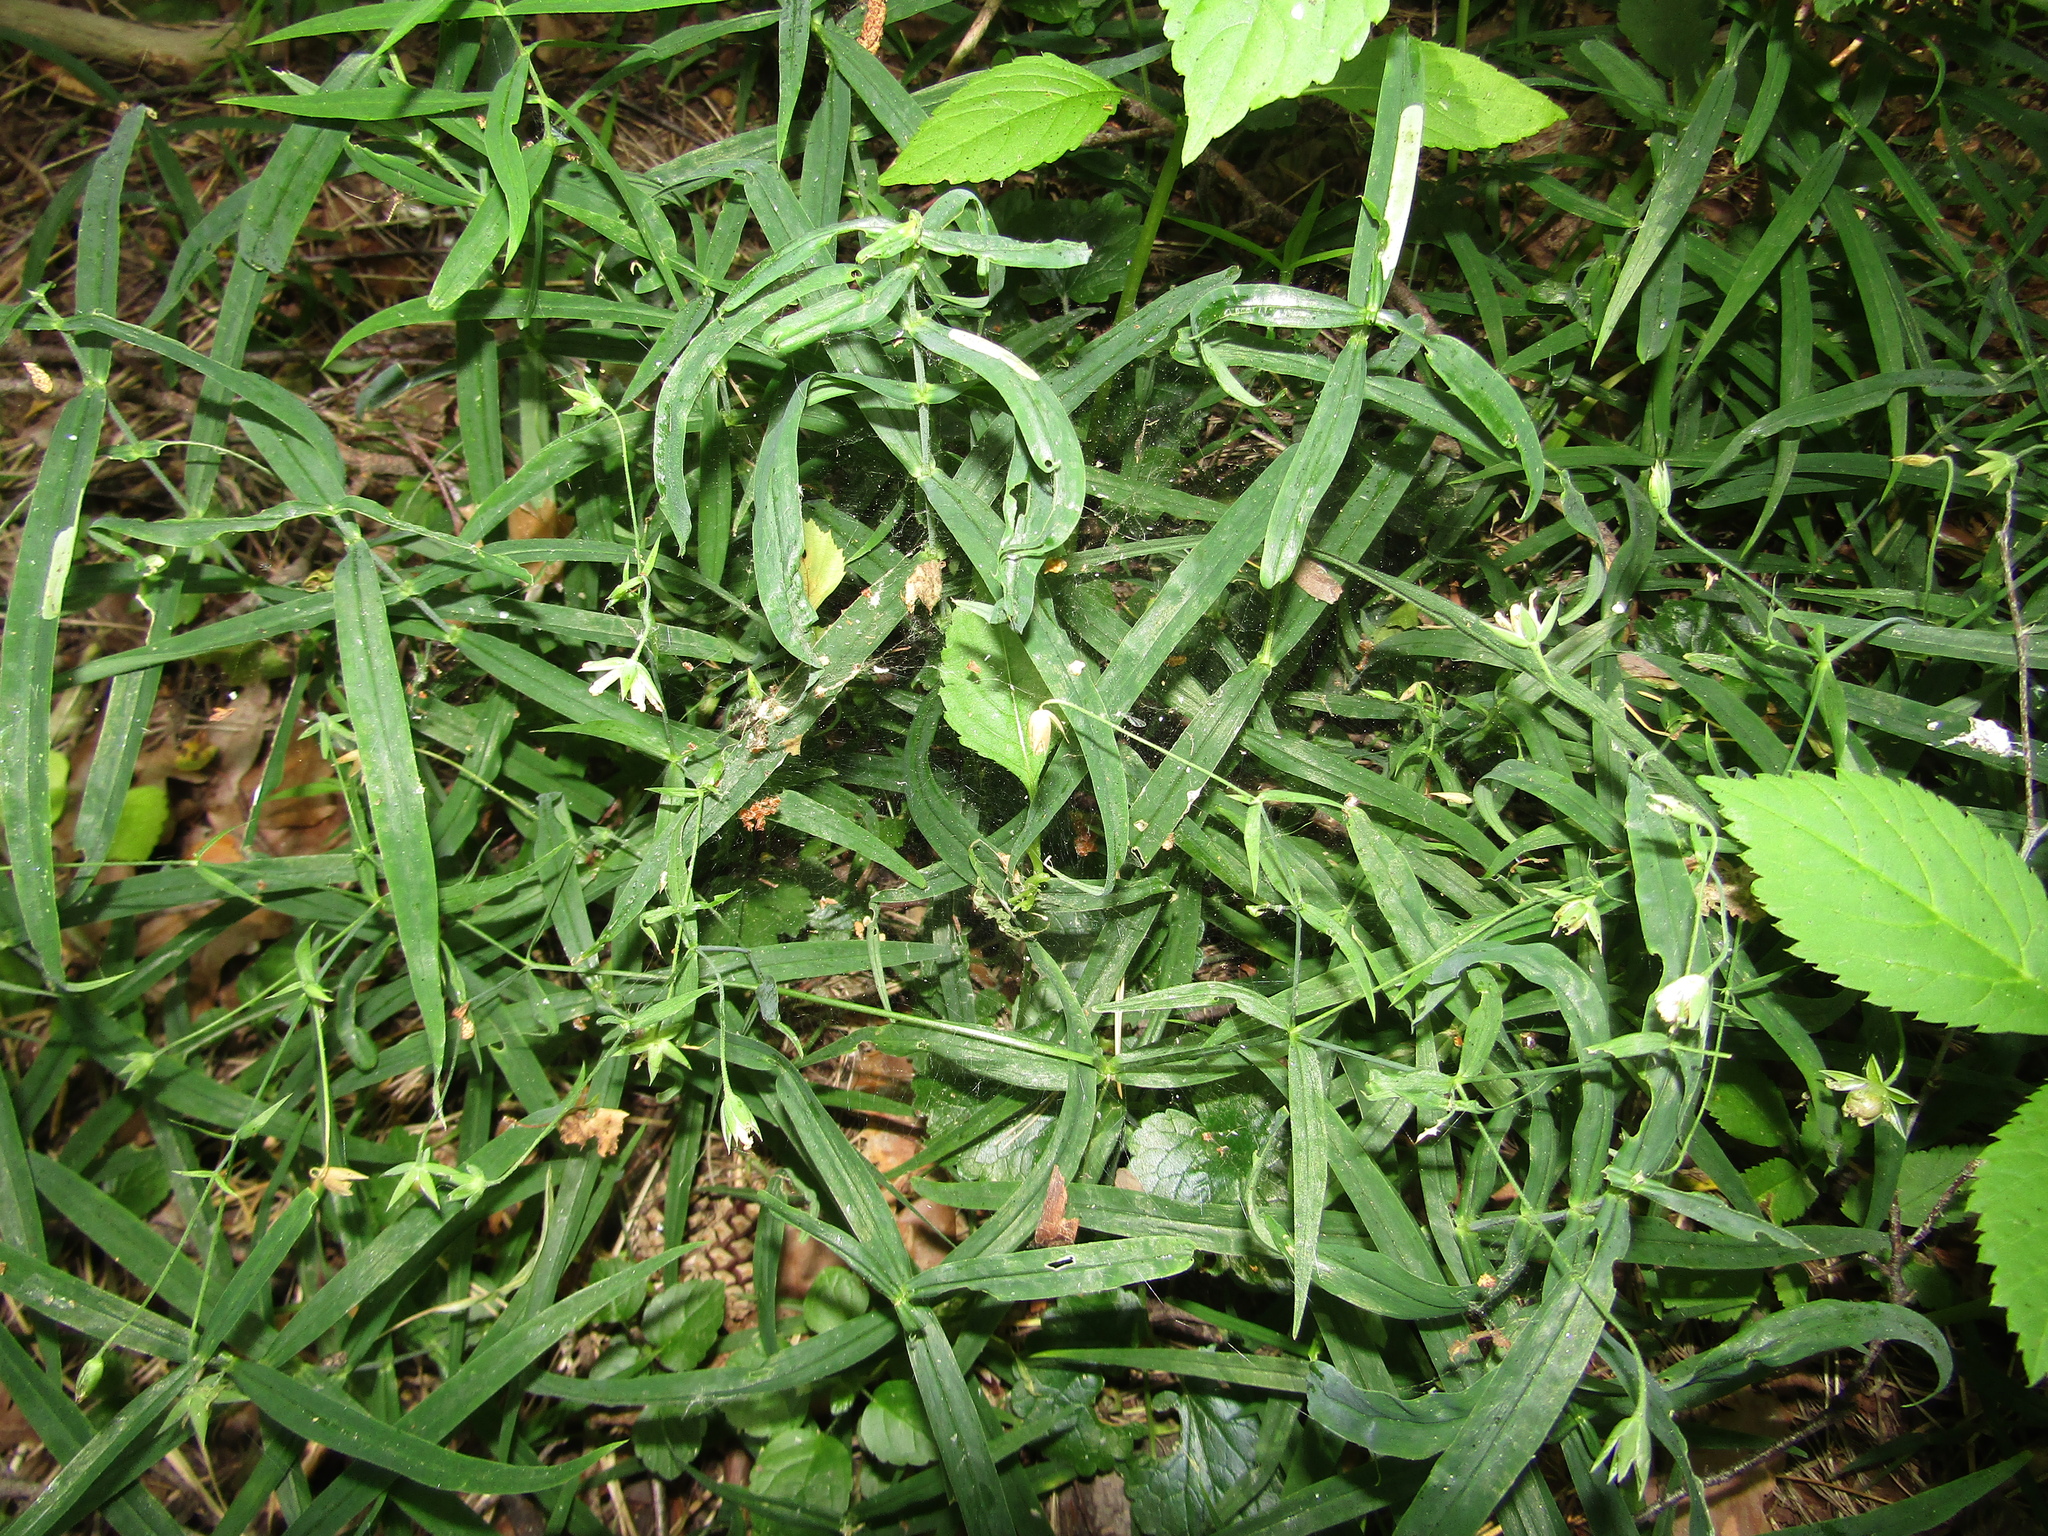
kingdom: Plantae
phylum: Tracheophyta
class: Magnoliopsida
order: Caryophyllales
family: Caryophyllaceae
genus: Rabelera
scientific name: Rabelera holostea
